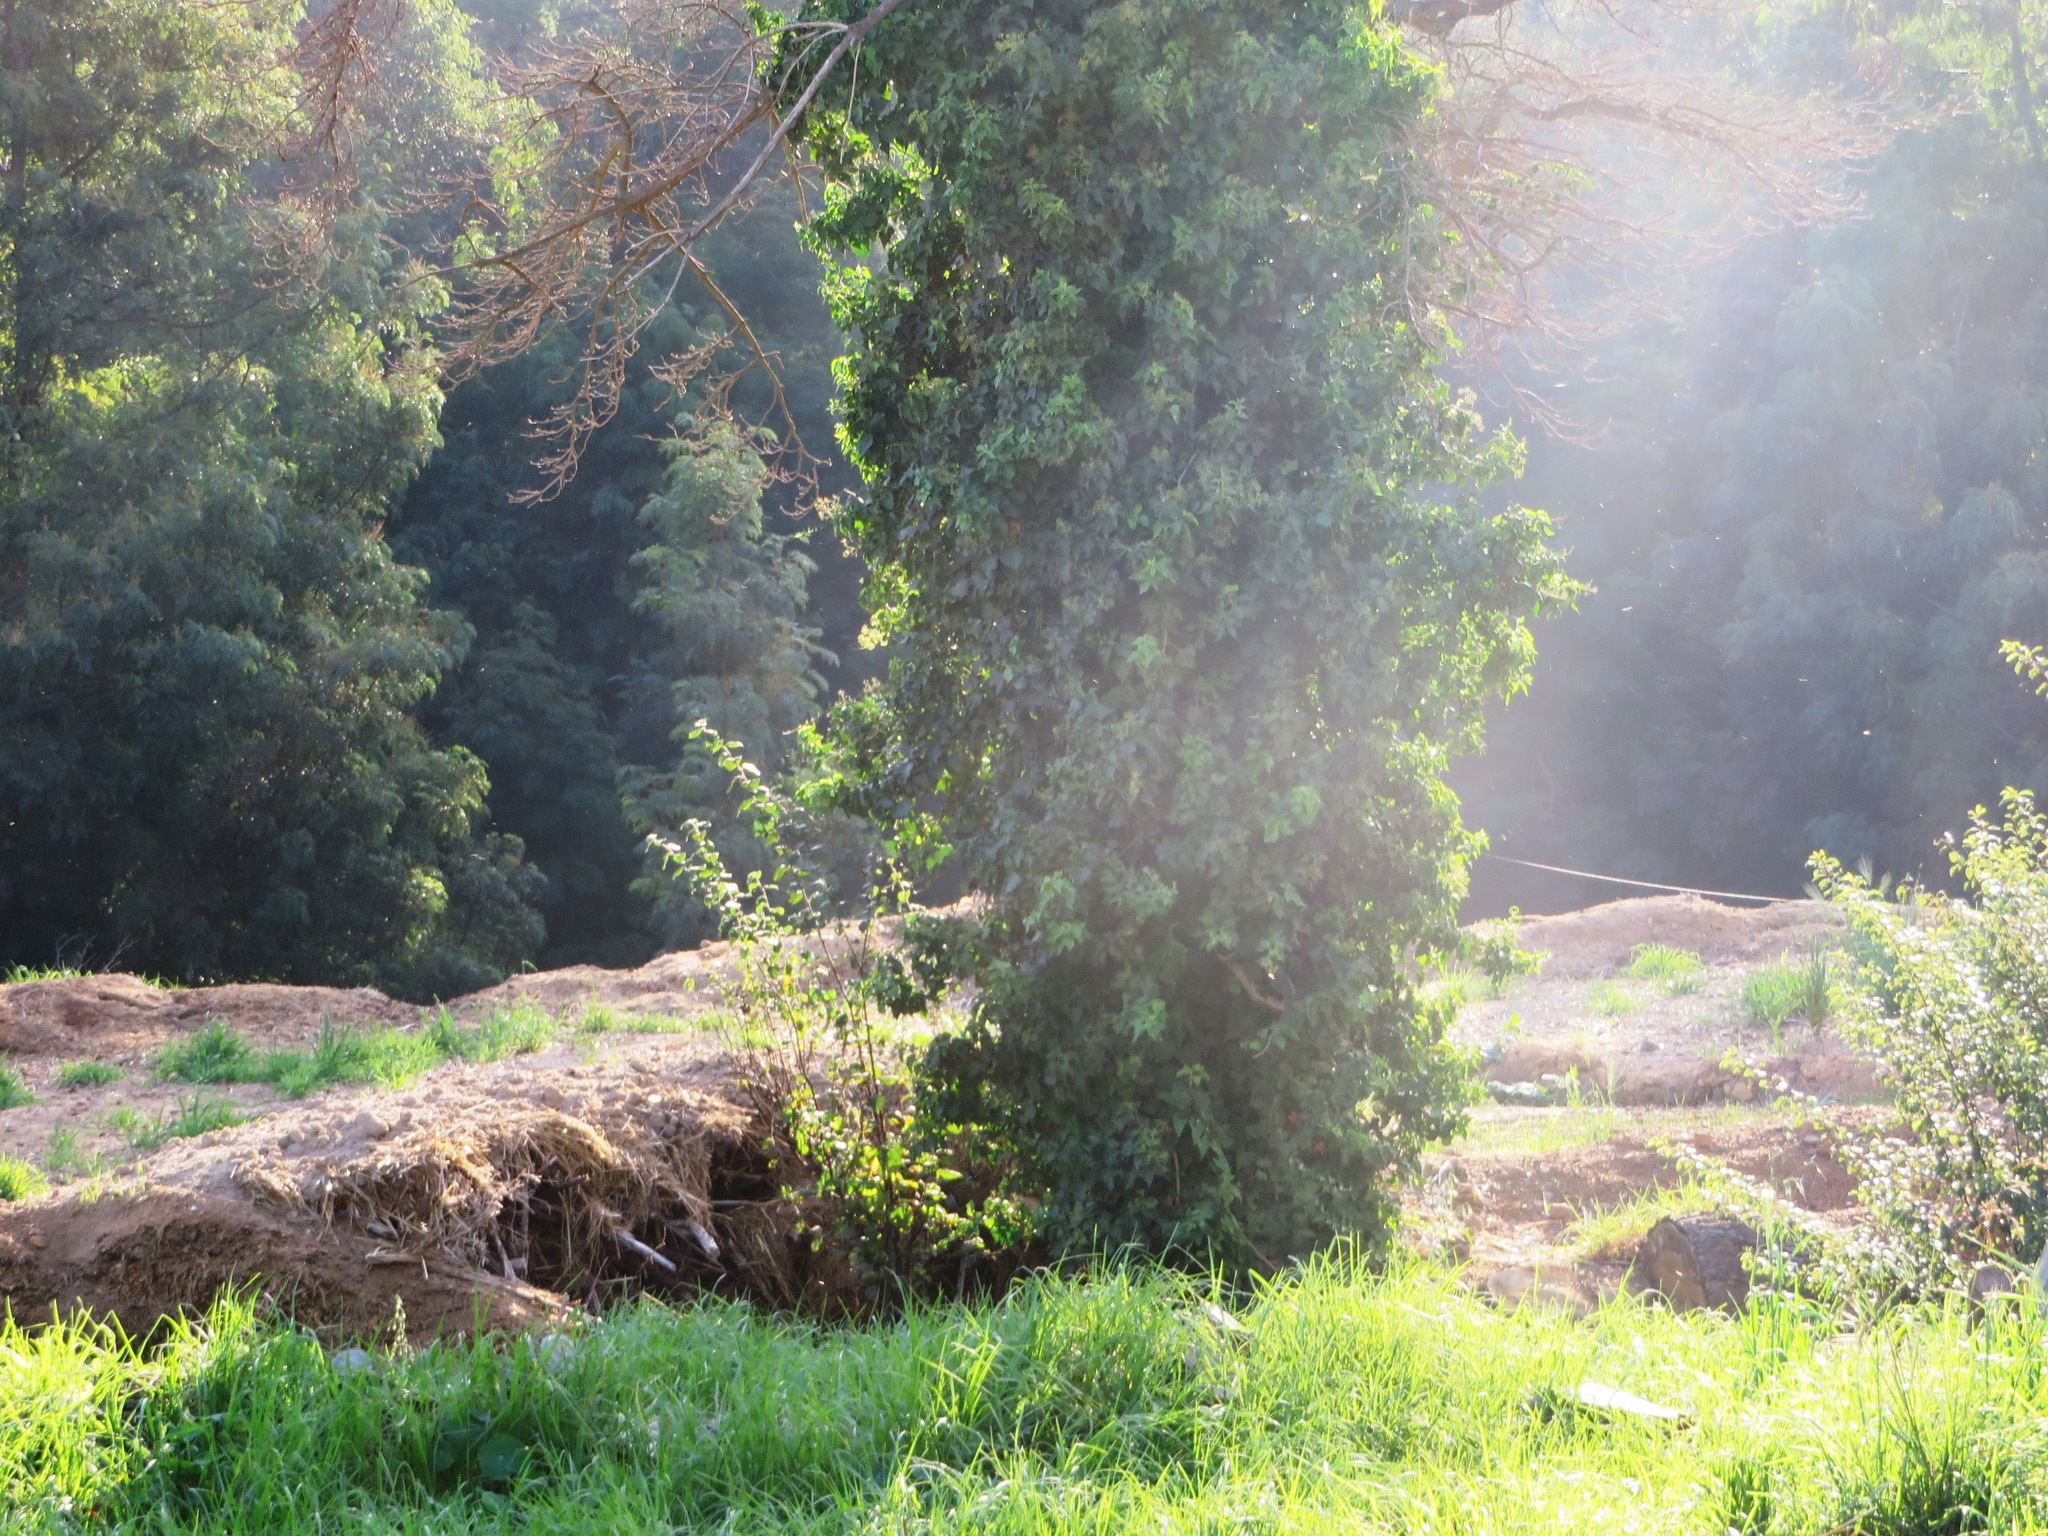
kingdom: Plantae
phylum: Tracheophyta
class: Magnoliopsida
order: Apiales
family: Araliaceae
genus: Hedera
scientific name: Hedera canariensis
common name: Madeira ivy
